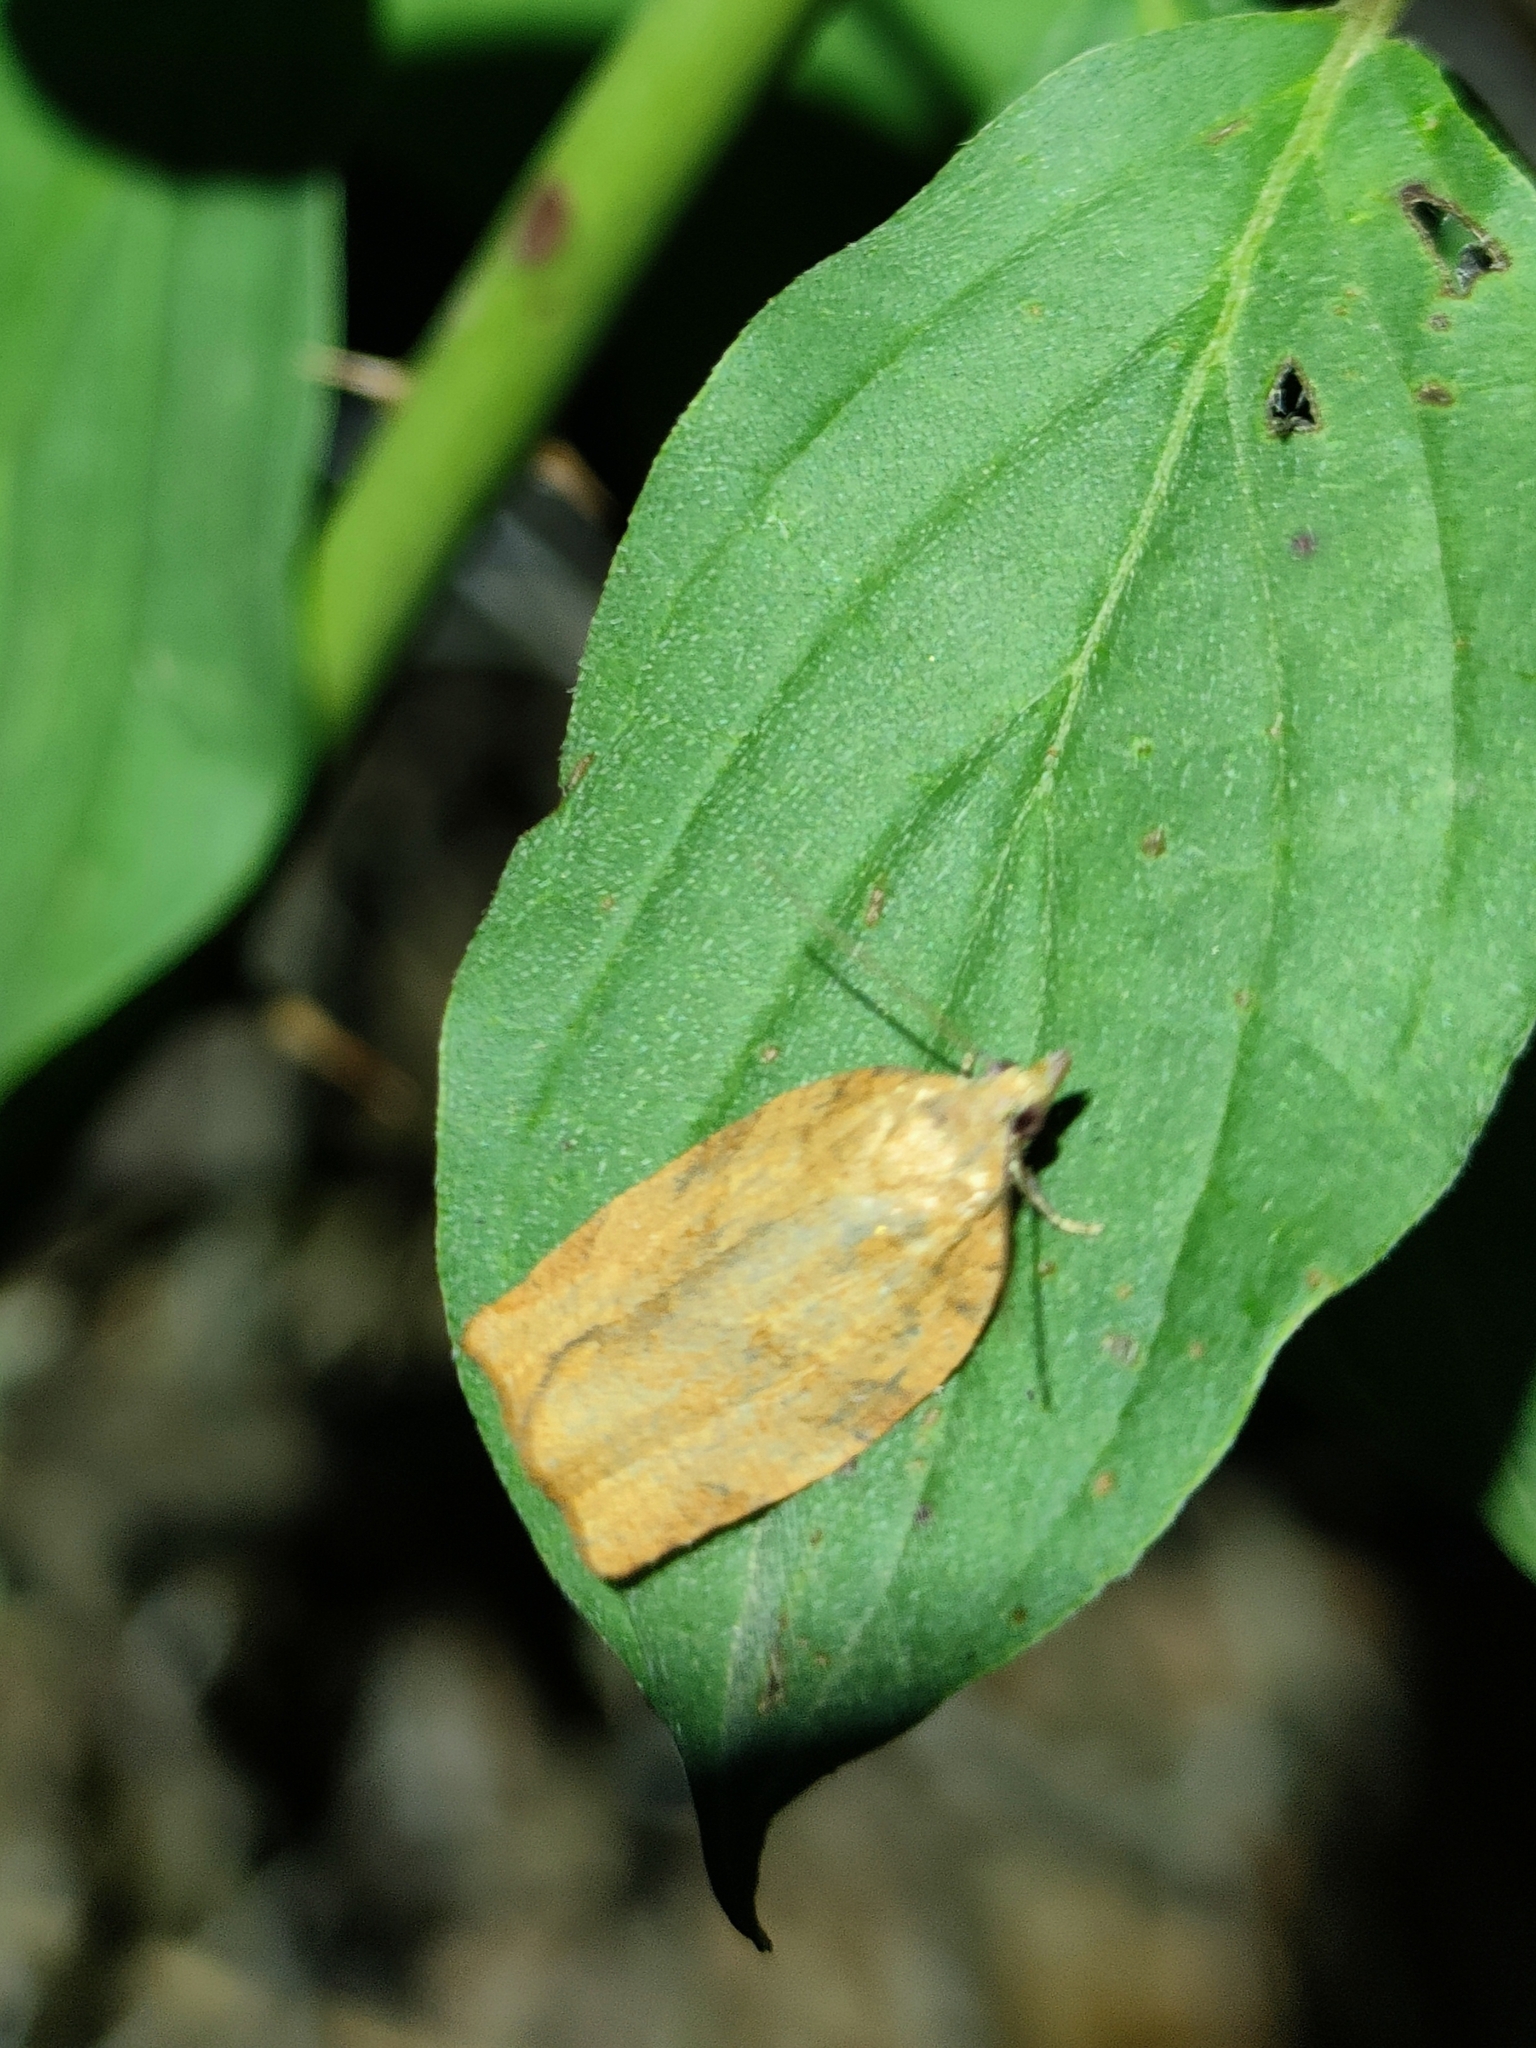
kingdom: Animalia
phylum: Arthropoda
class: Insecta
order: Lepidoptera
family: Tortricidae
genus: Pandemis
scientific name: Pandemis cerasana
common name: Barred fruit-tree tortrix
